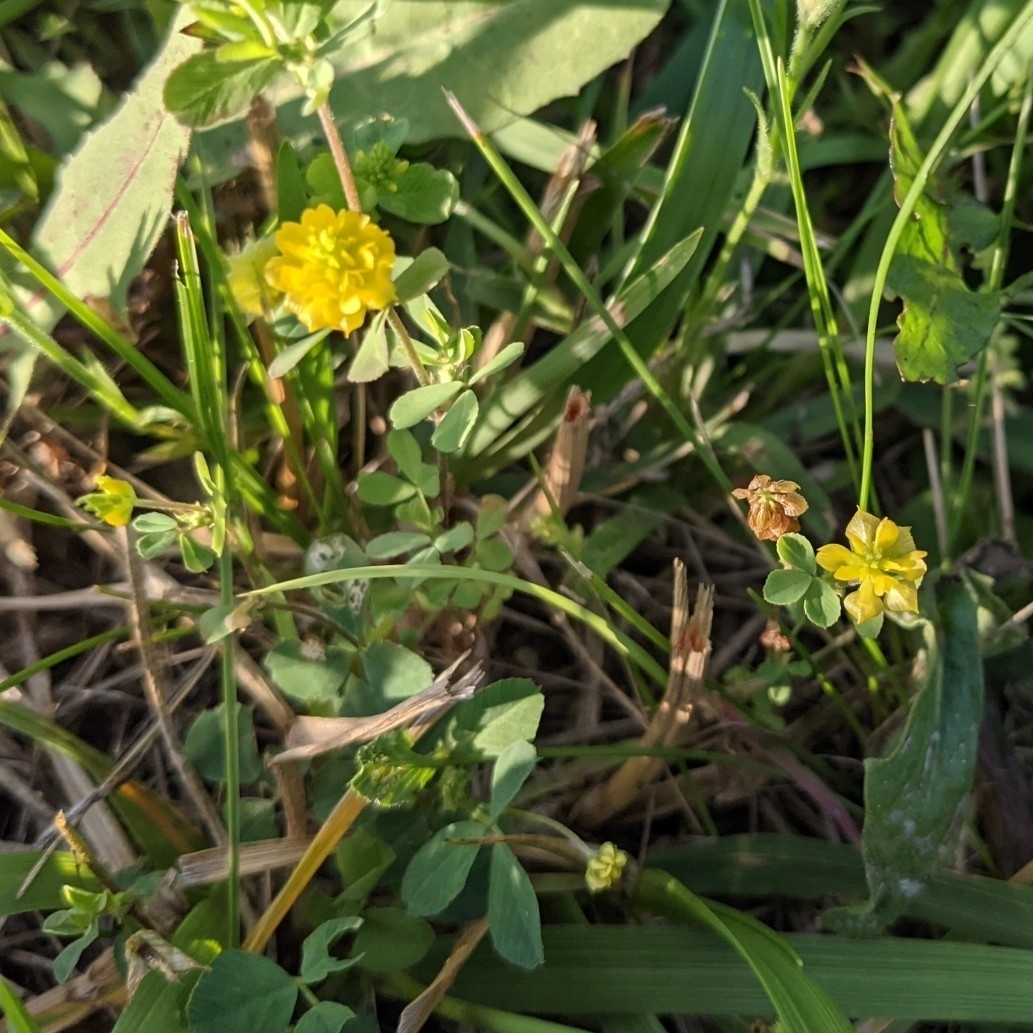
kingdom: Plantae
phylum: Tracheophyta
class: Magnoliopsida
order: Fabales
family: Fabaceae
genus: Trifolium
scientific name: Trifolium campestre
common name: Field clover
